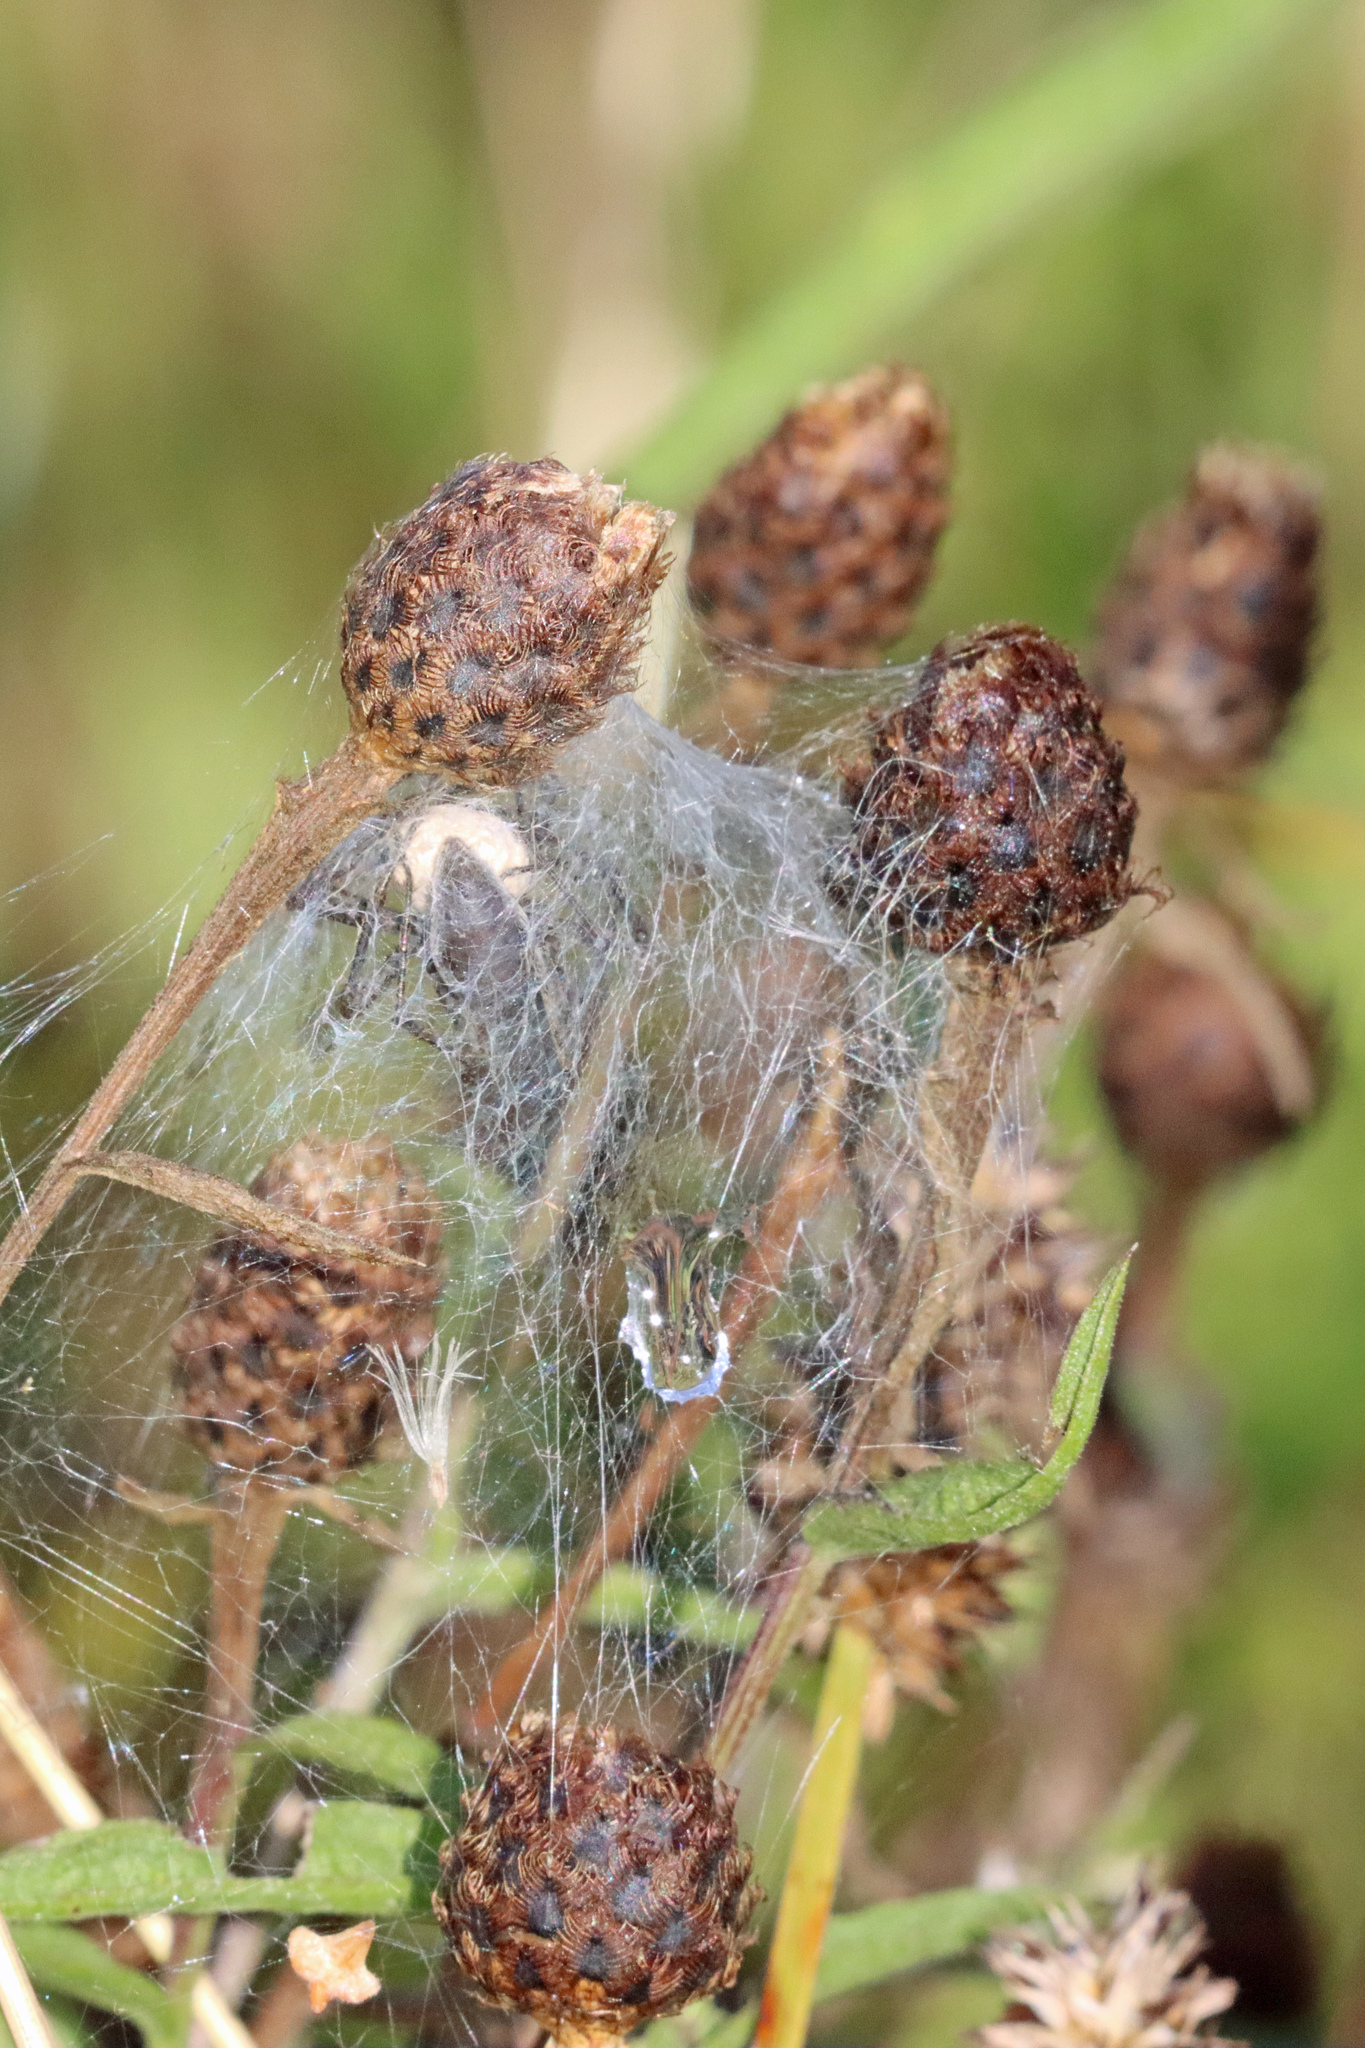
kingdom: Animalia
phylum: Arthropoda
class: Arachnida
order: Araneae
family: Pisauridae
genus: Pisaura
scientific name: Pisaura mirabilis
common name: Tent spider
